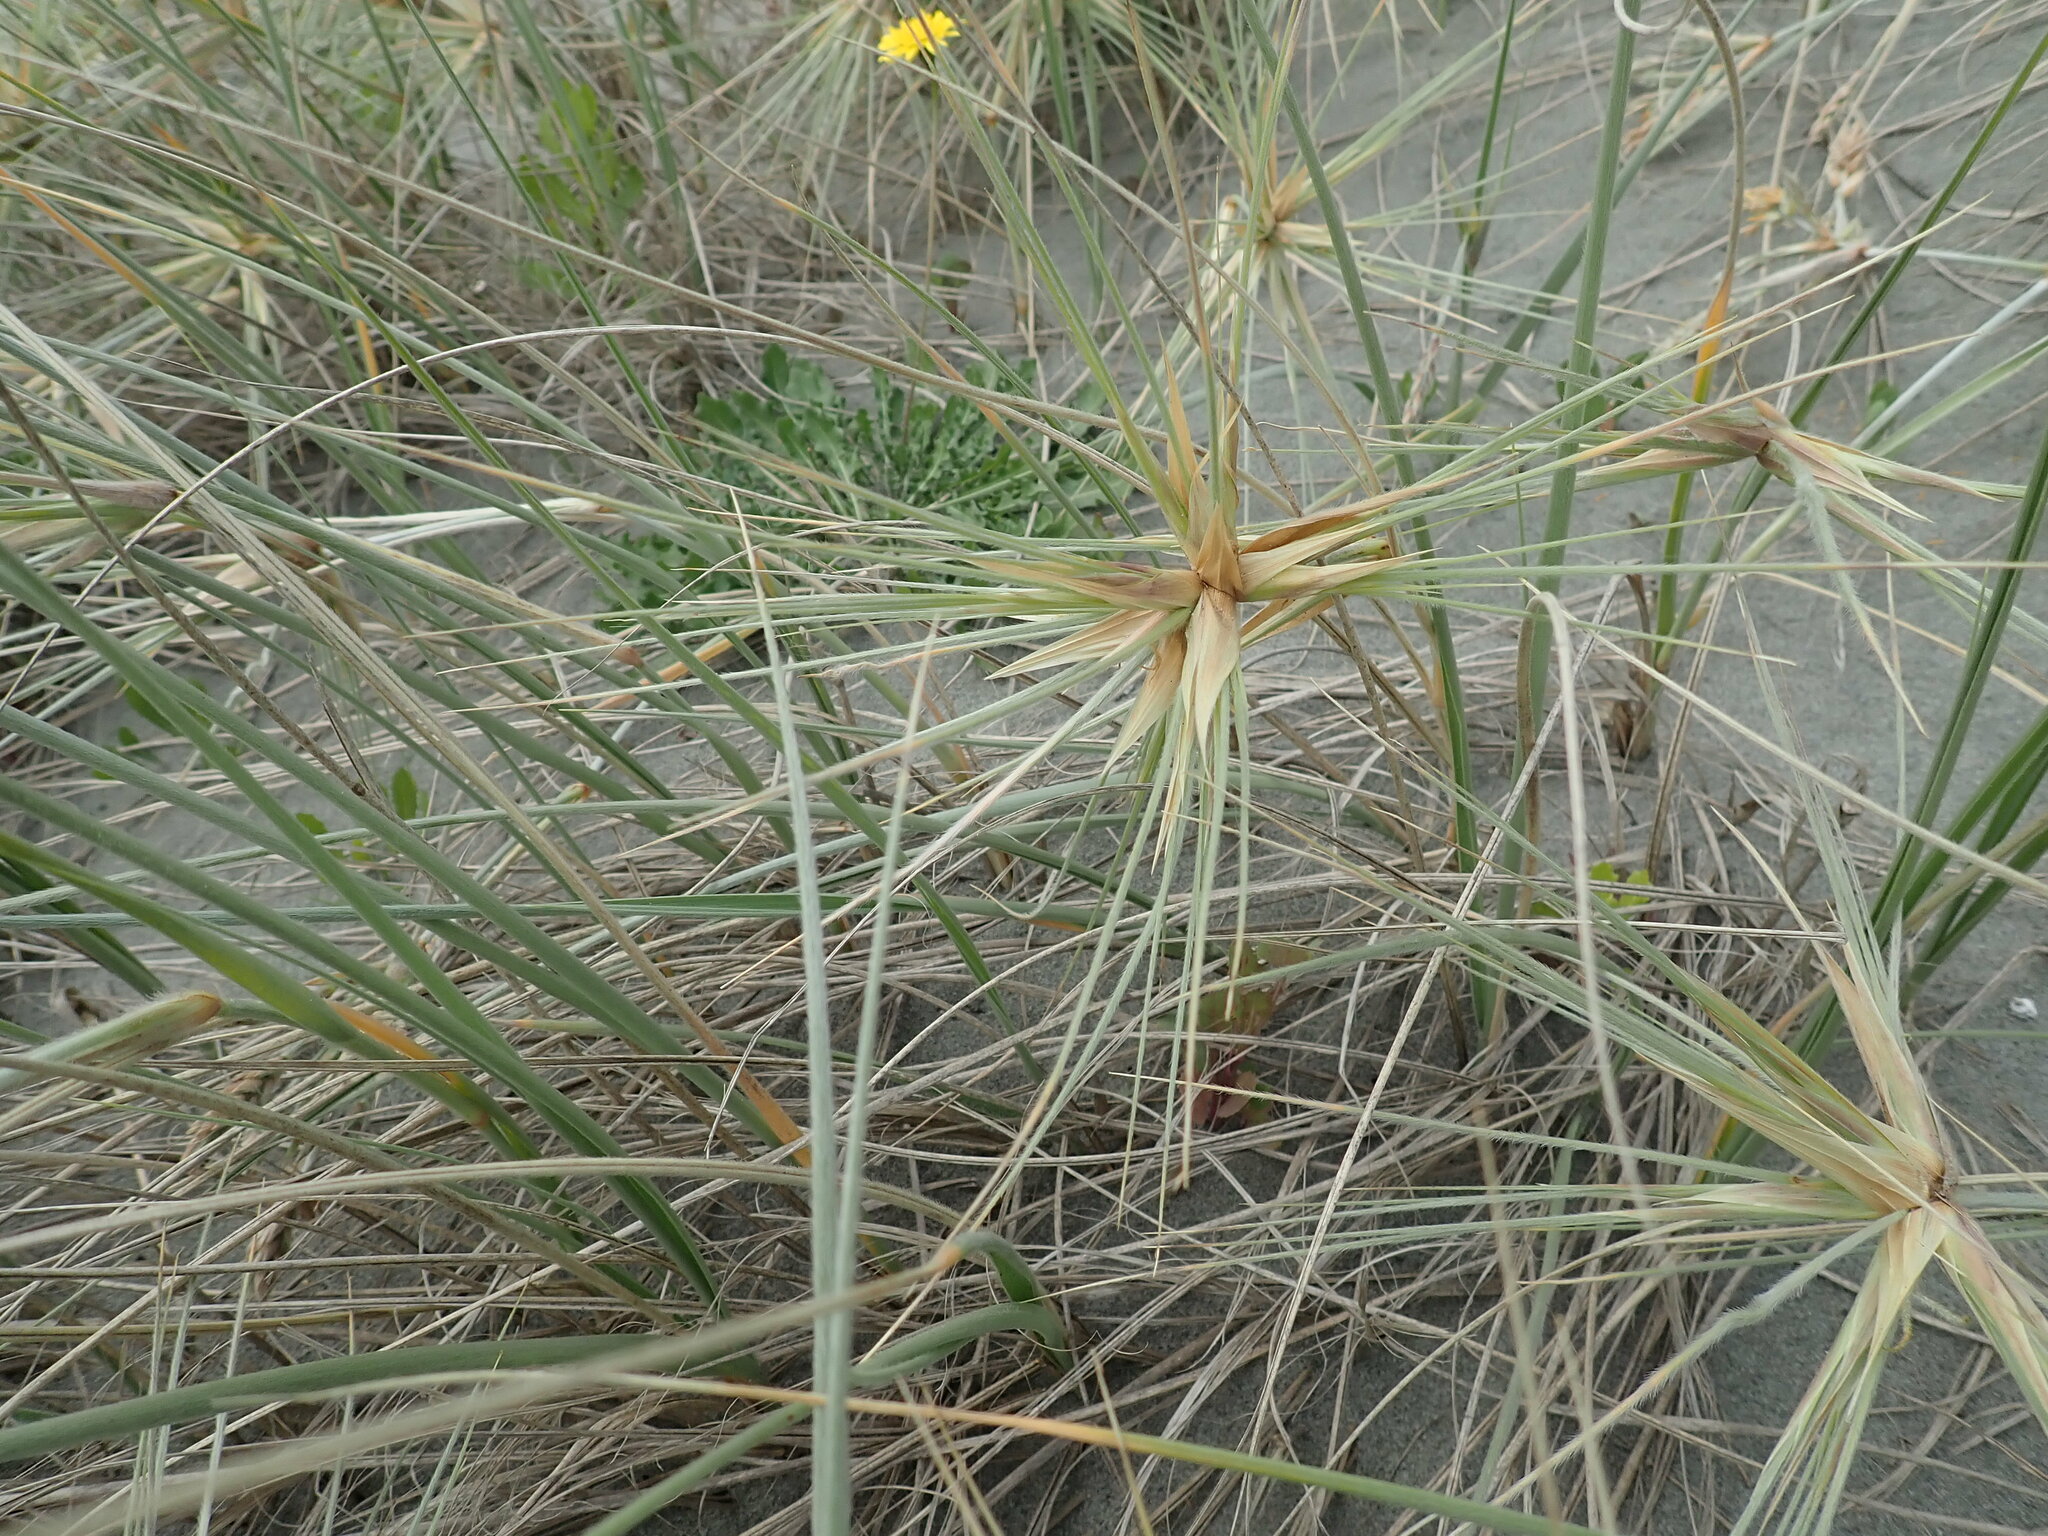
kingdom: Plantae
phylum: Tracheophyta
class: Liliopsida
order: Poales
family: Poaceae
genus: Spinifex
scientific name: Spinifex sericeus
